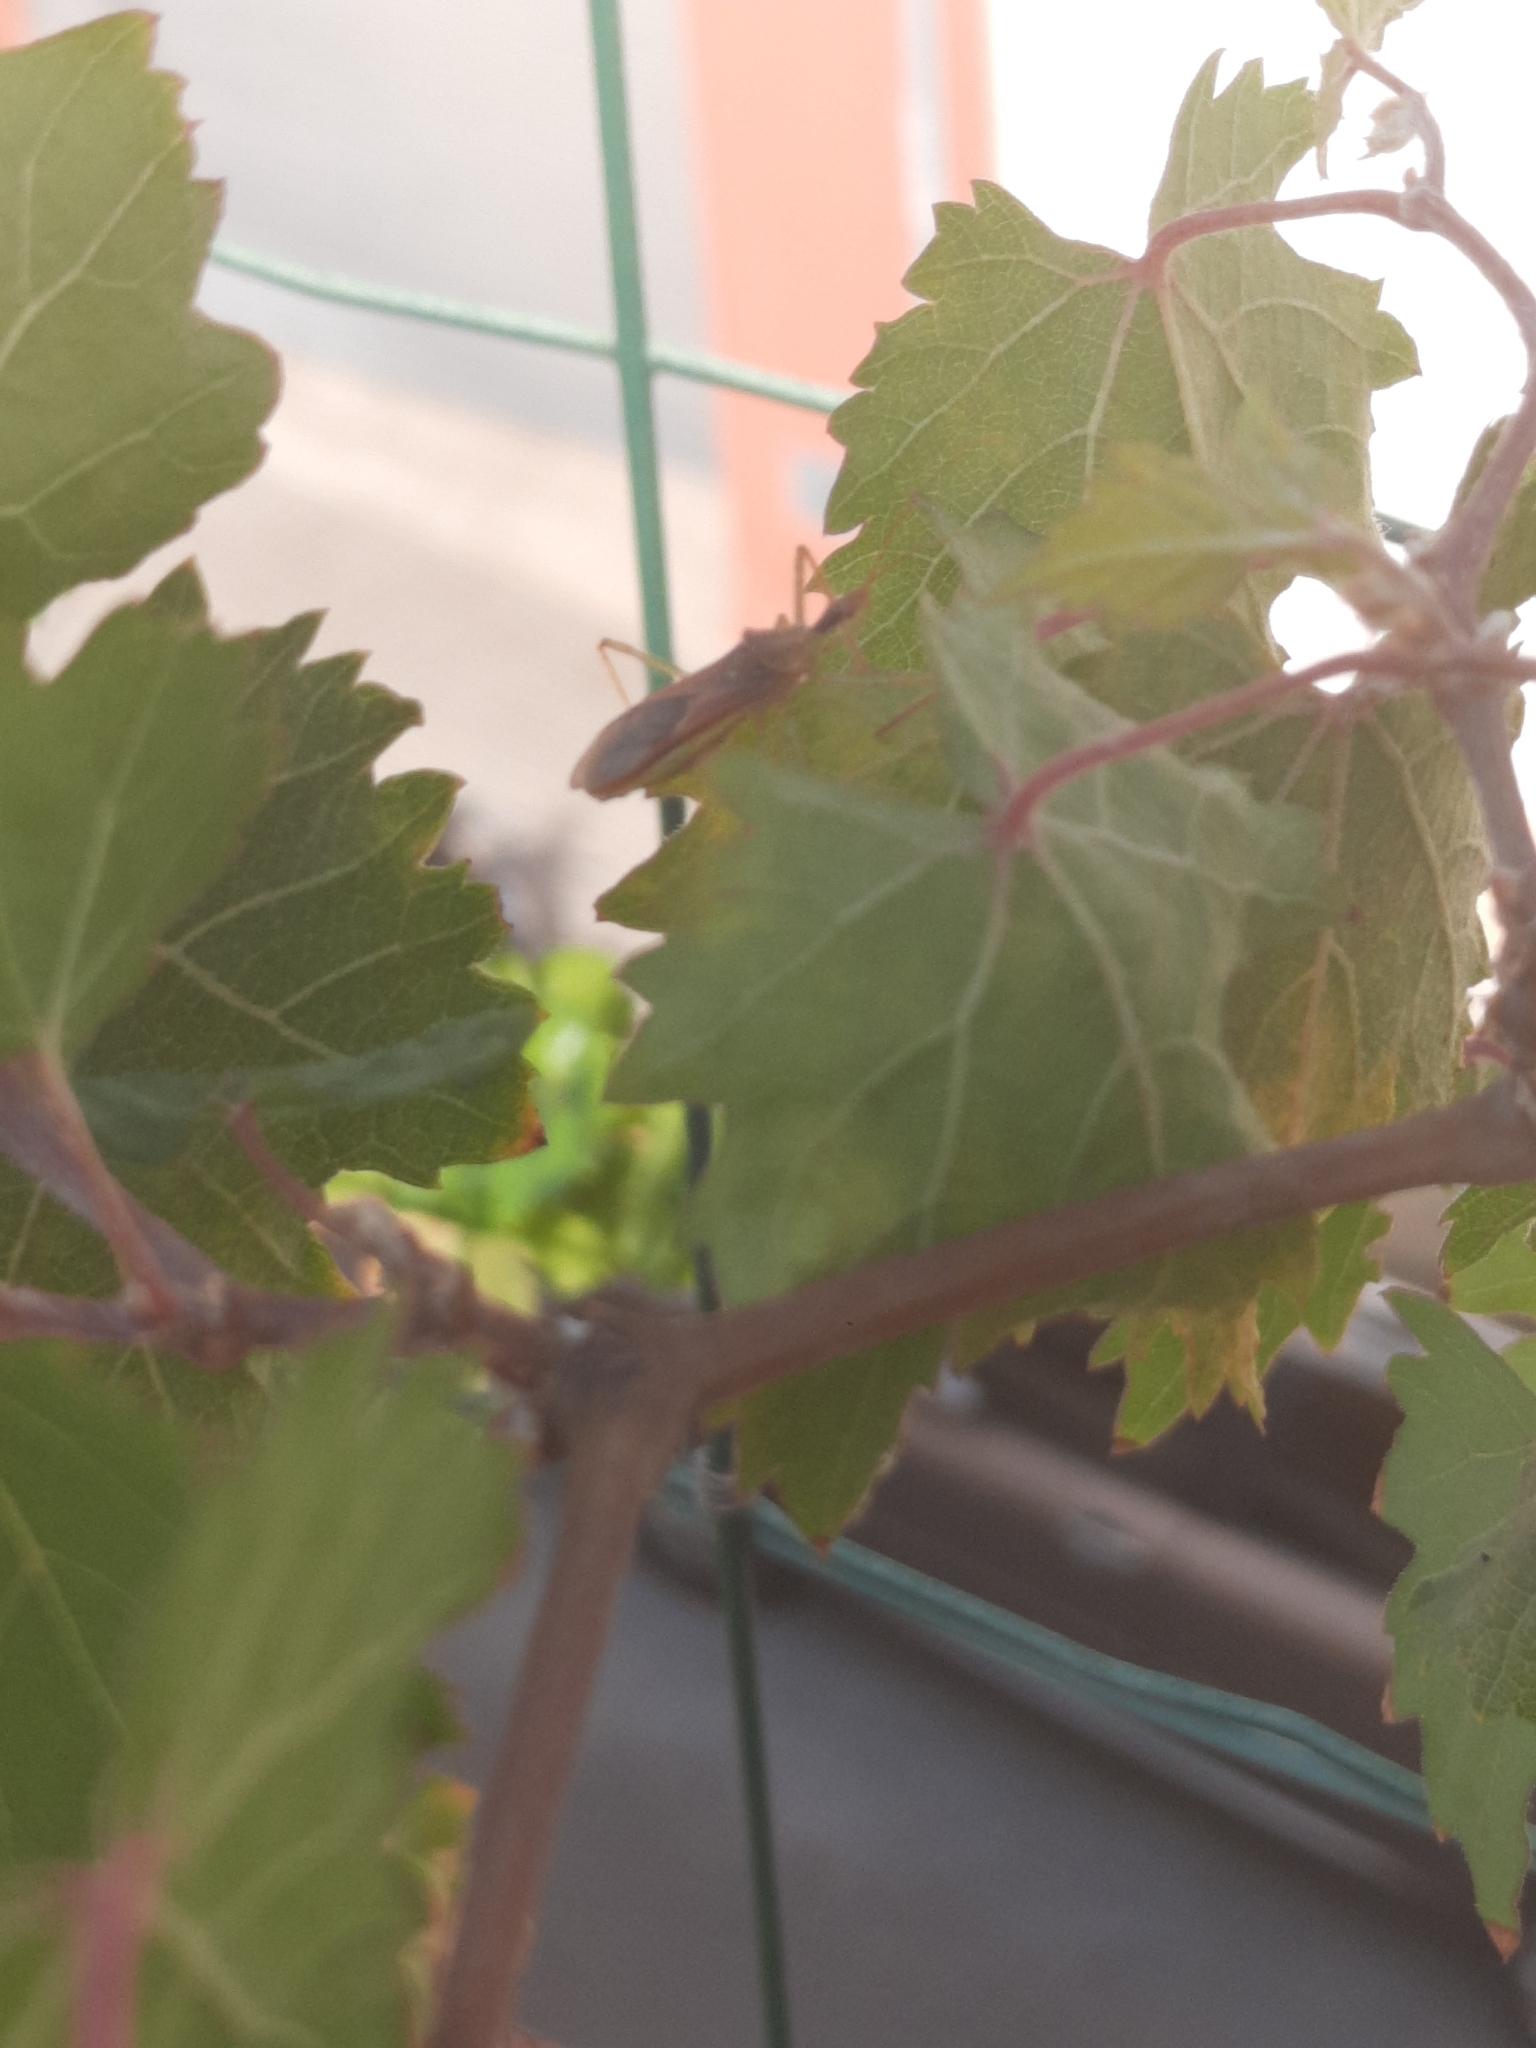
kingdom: Animalia
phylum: Arthropoda
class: Insecta
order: Hemiptera
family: Reduviidae
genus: Zelus
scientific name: Zelus renardii
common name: Assassin bug
